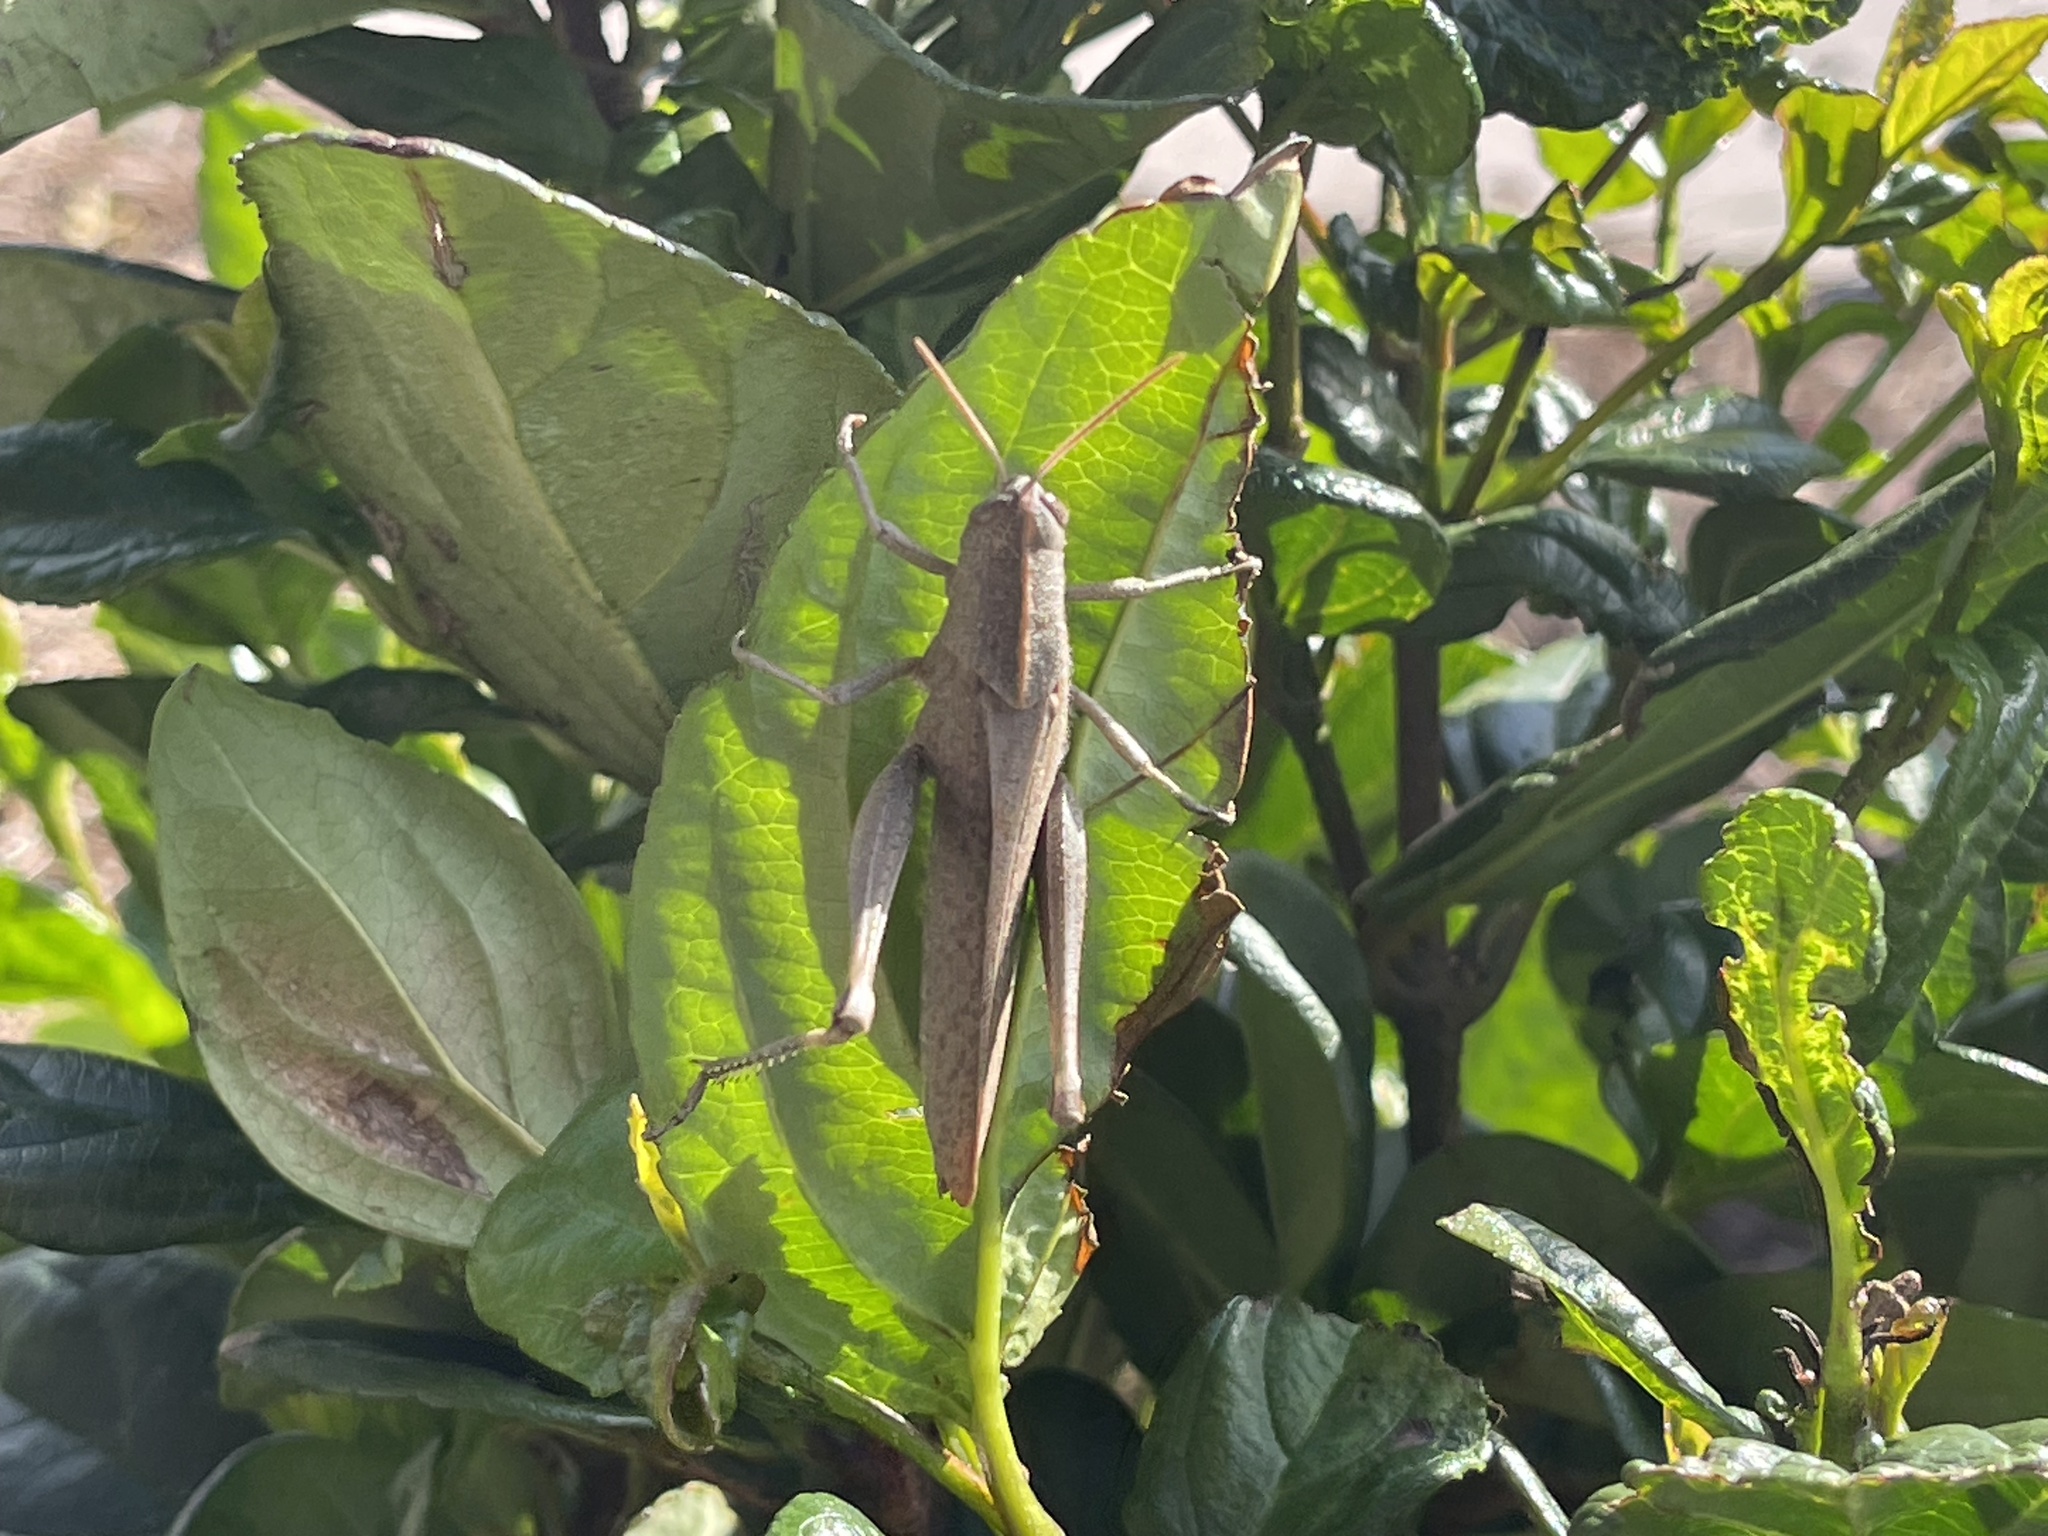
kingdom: Animalia
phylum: Arthropoda
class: Insecta
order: Orthoptera
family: Acrididae
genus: Schistocerca
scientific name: Schistocerca damnifica
